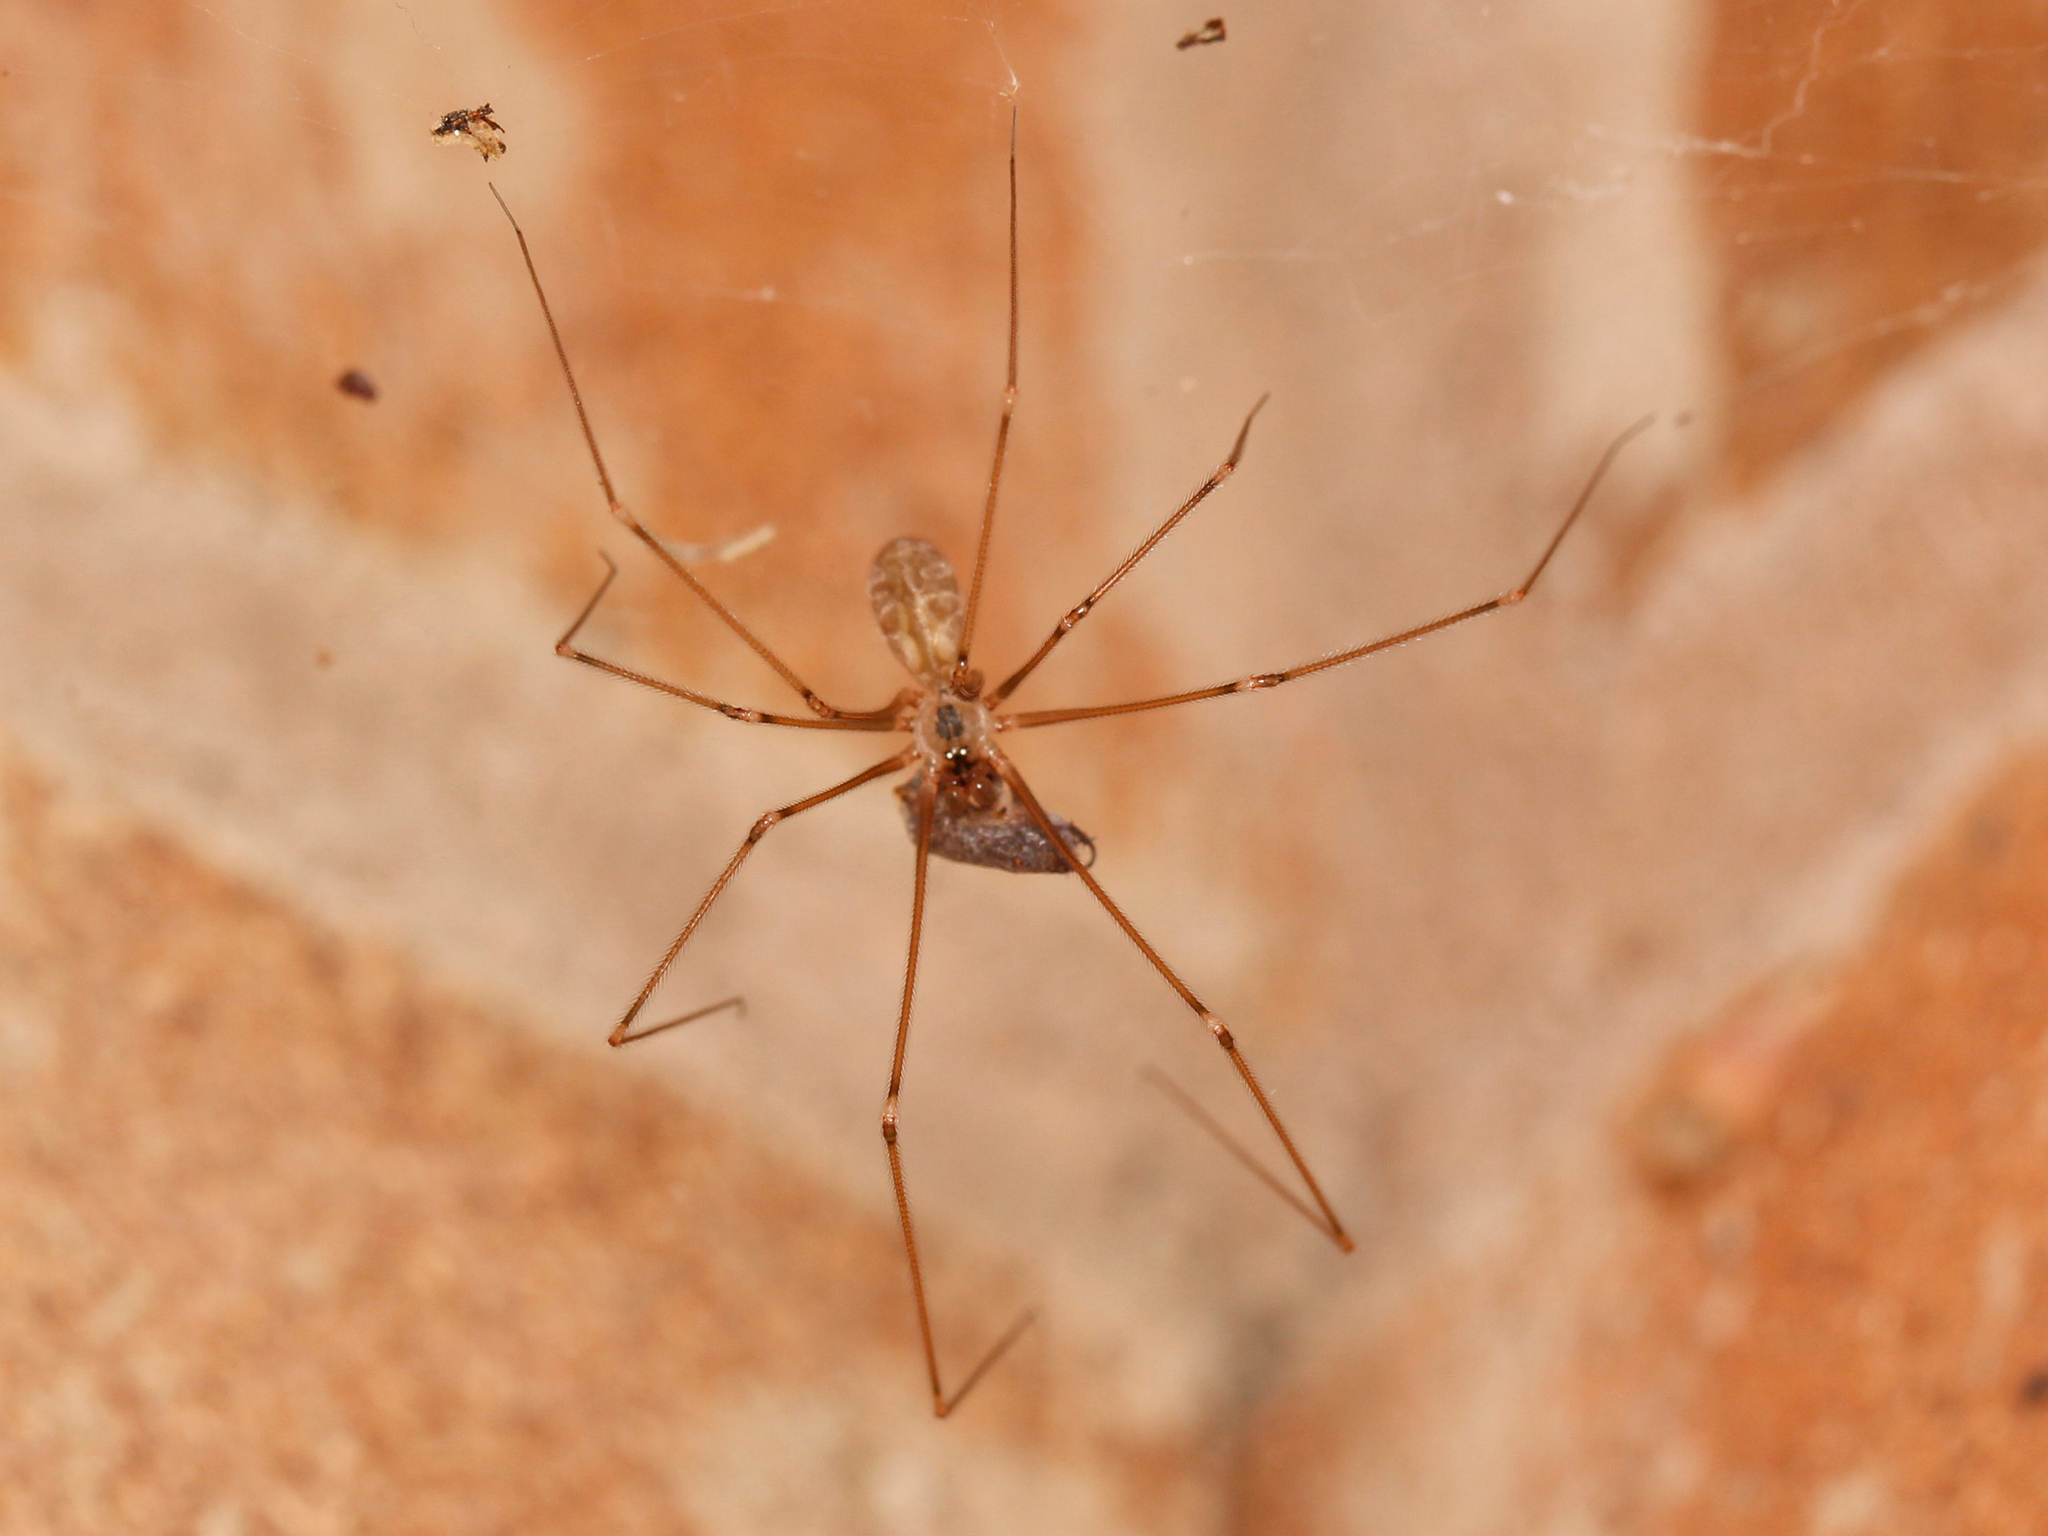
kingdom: Animalia
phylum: Arthropoda
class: Arachnida
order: Araneae
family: Pholcidae
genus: Pholcus
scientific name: Pholcus manueli
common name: Cellar spider
